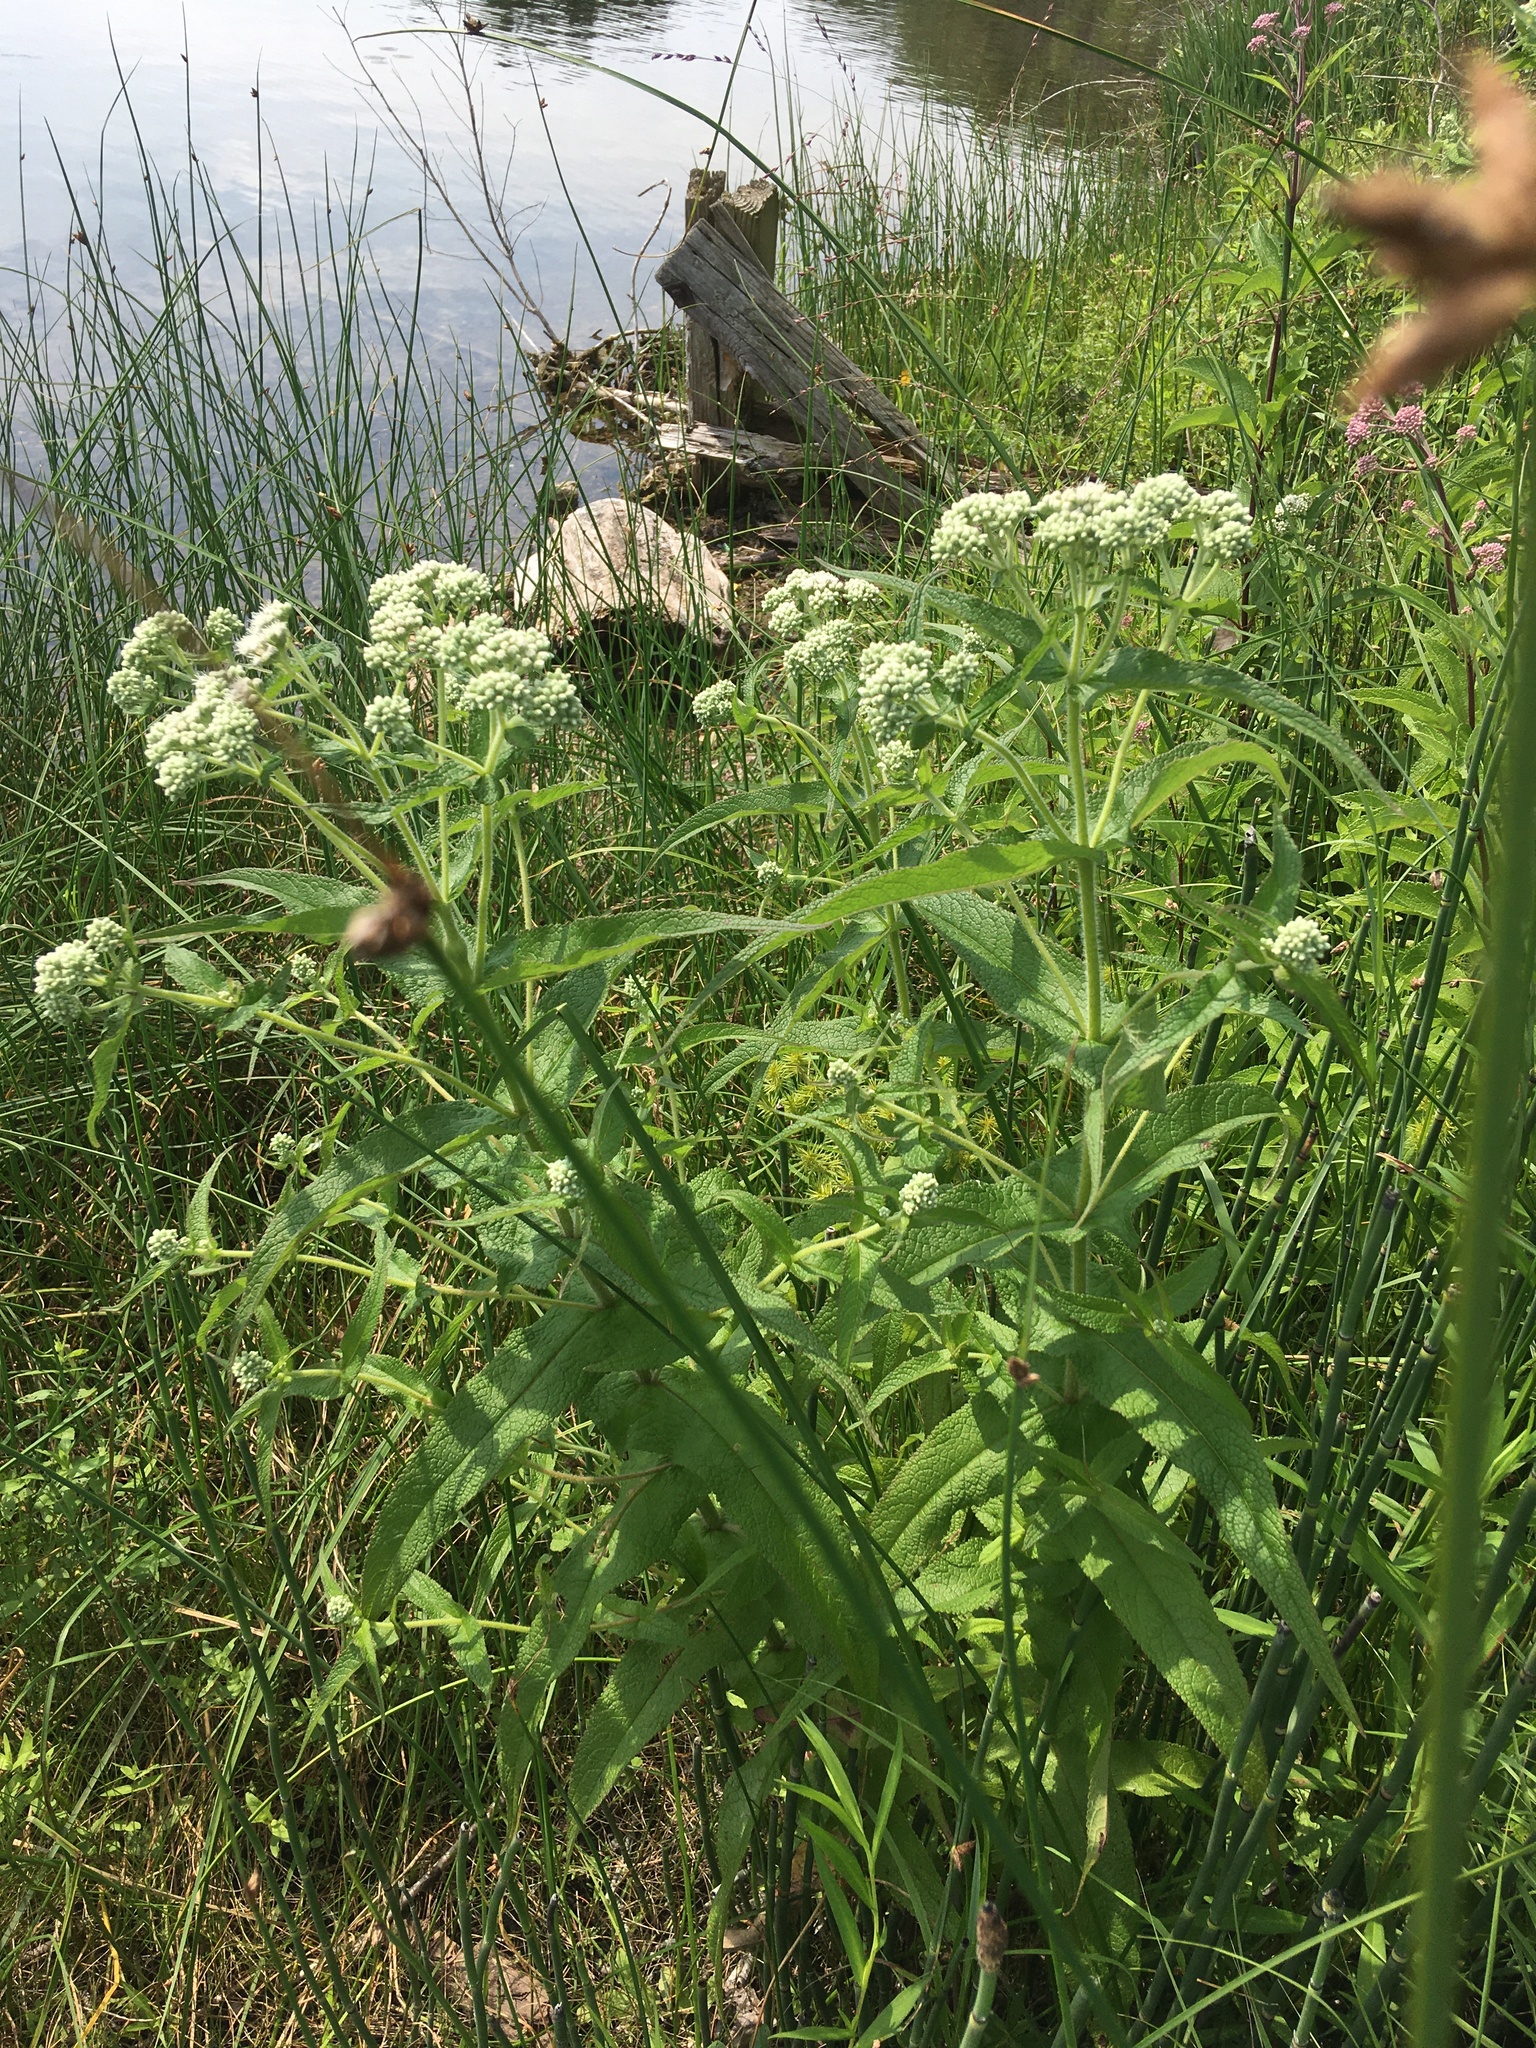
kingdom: Plantae
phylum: Tracheophyta
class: Magnoliopsida
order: Asterales
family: Asteraceae
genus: Eupatorium
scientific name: Eupatorium perfoliatum
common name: Boneset
